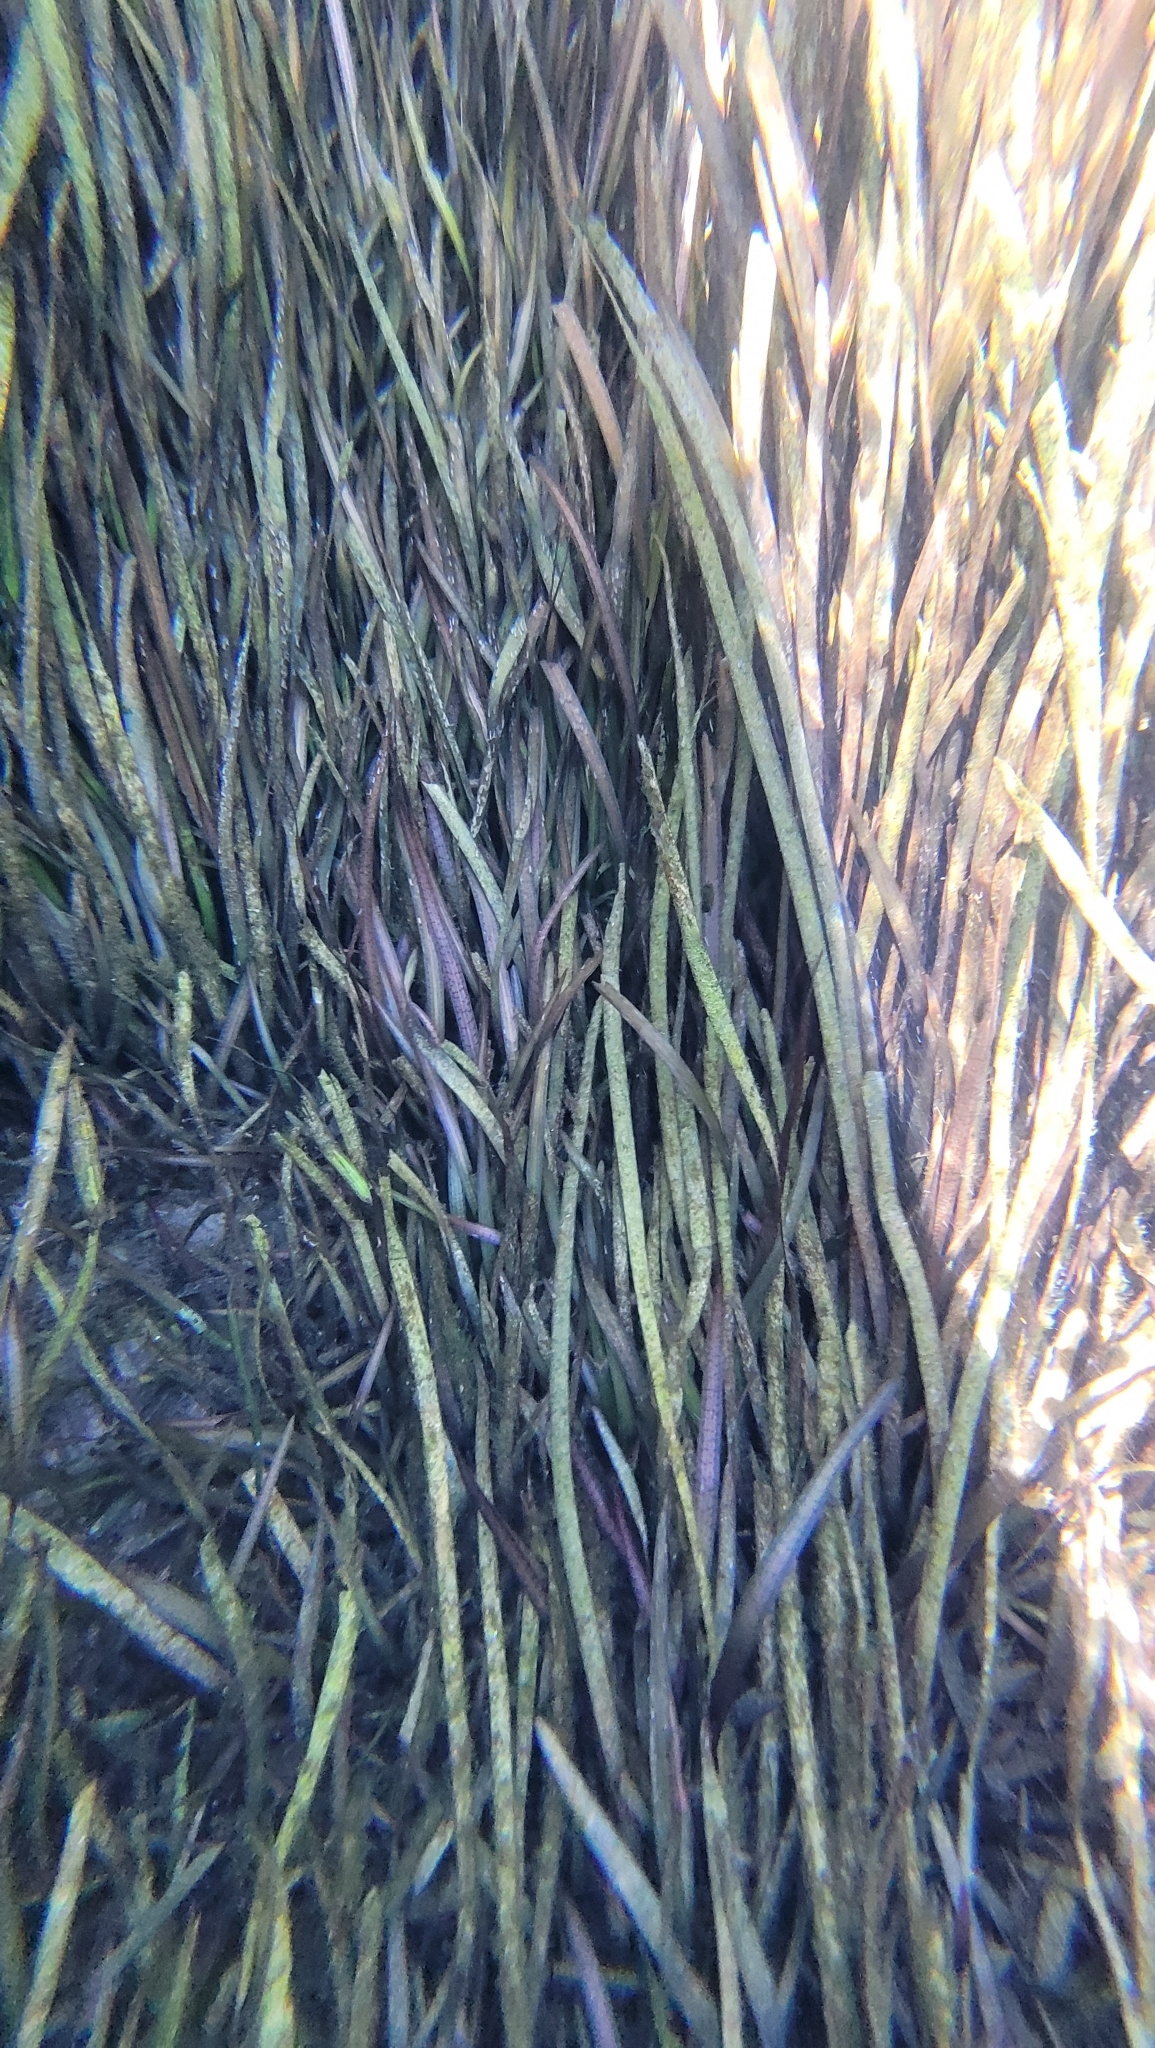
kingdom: Plantae
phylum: Tracheophyta
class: Liliopsida
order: Alismatales
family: Hydrocharitaceae
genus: Vallisneria
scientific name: Vallisneria americana
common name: American eelgrass
